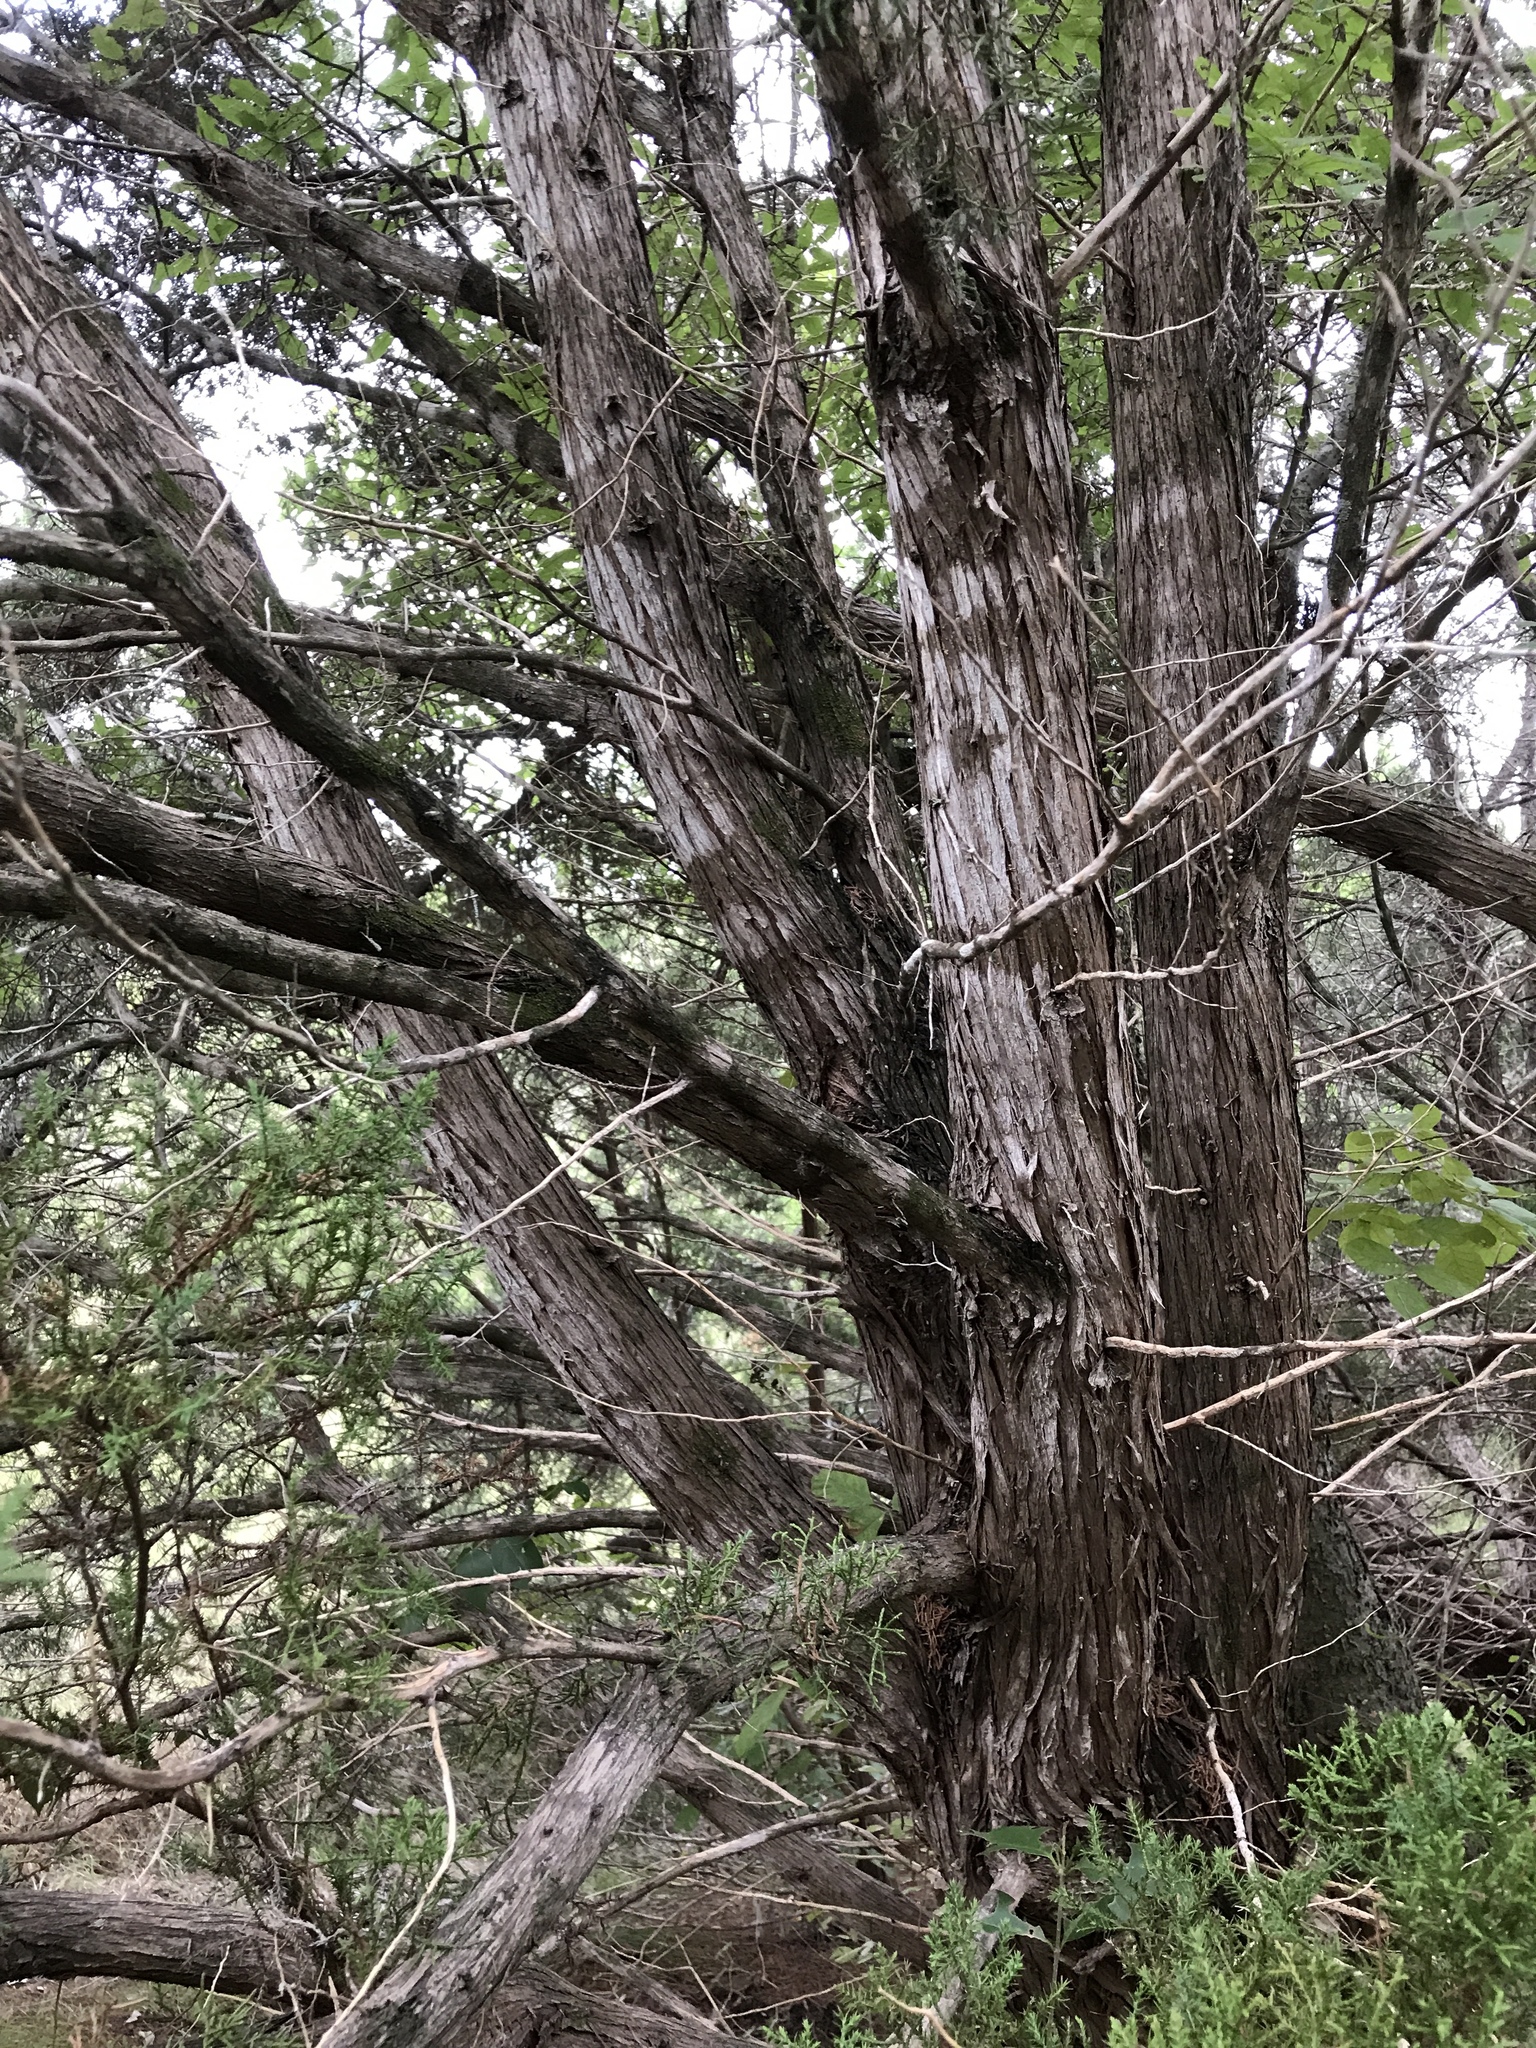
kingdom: Plantae
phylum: Tracheophyta
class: Pinopsida
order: Pinales
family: Cupressaceae
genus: Juniperus
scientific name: Juniperus ashei
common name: Mexican juniper
